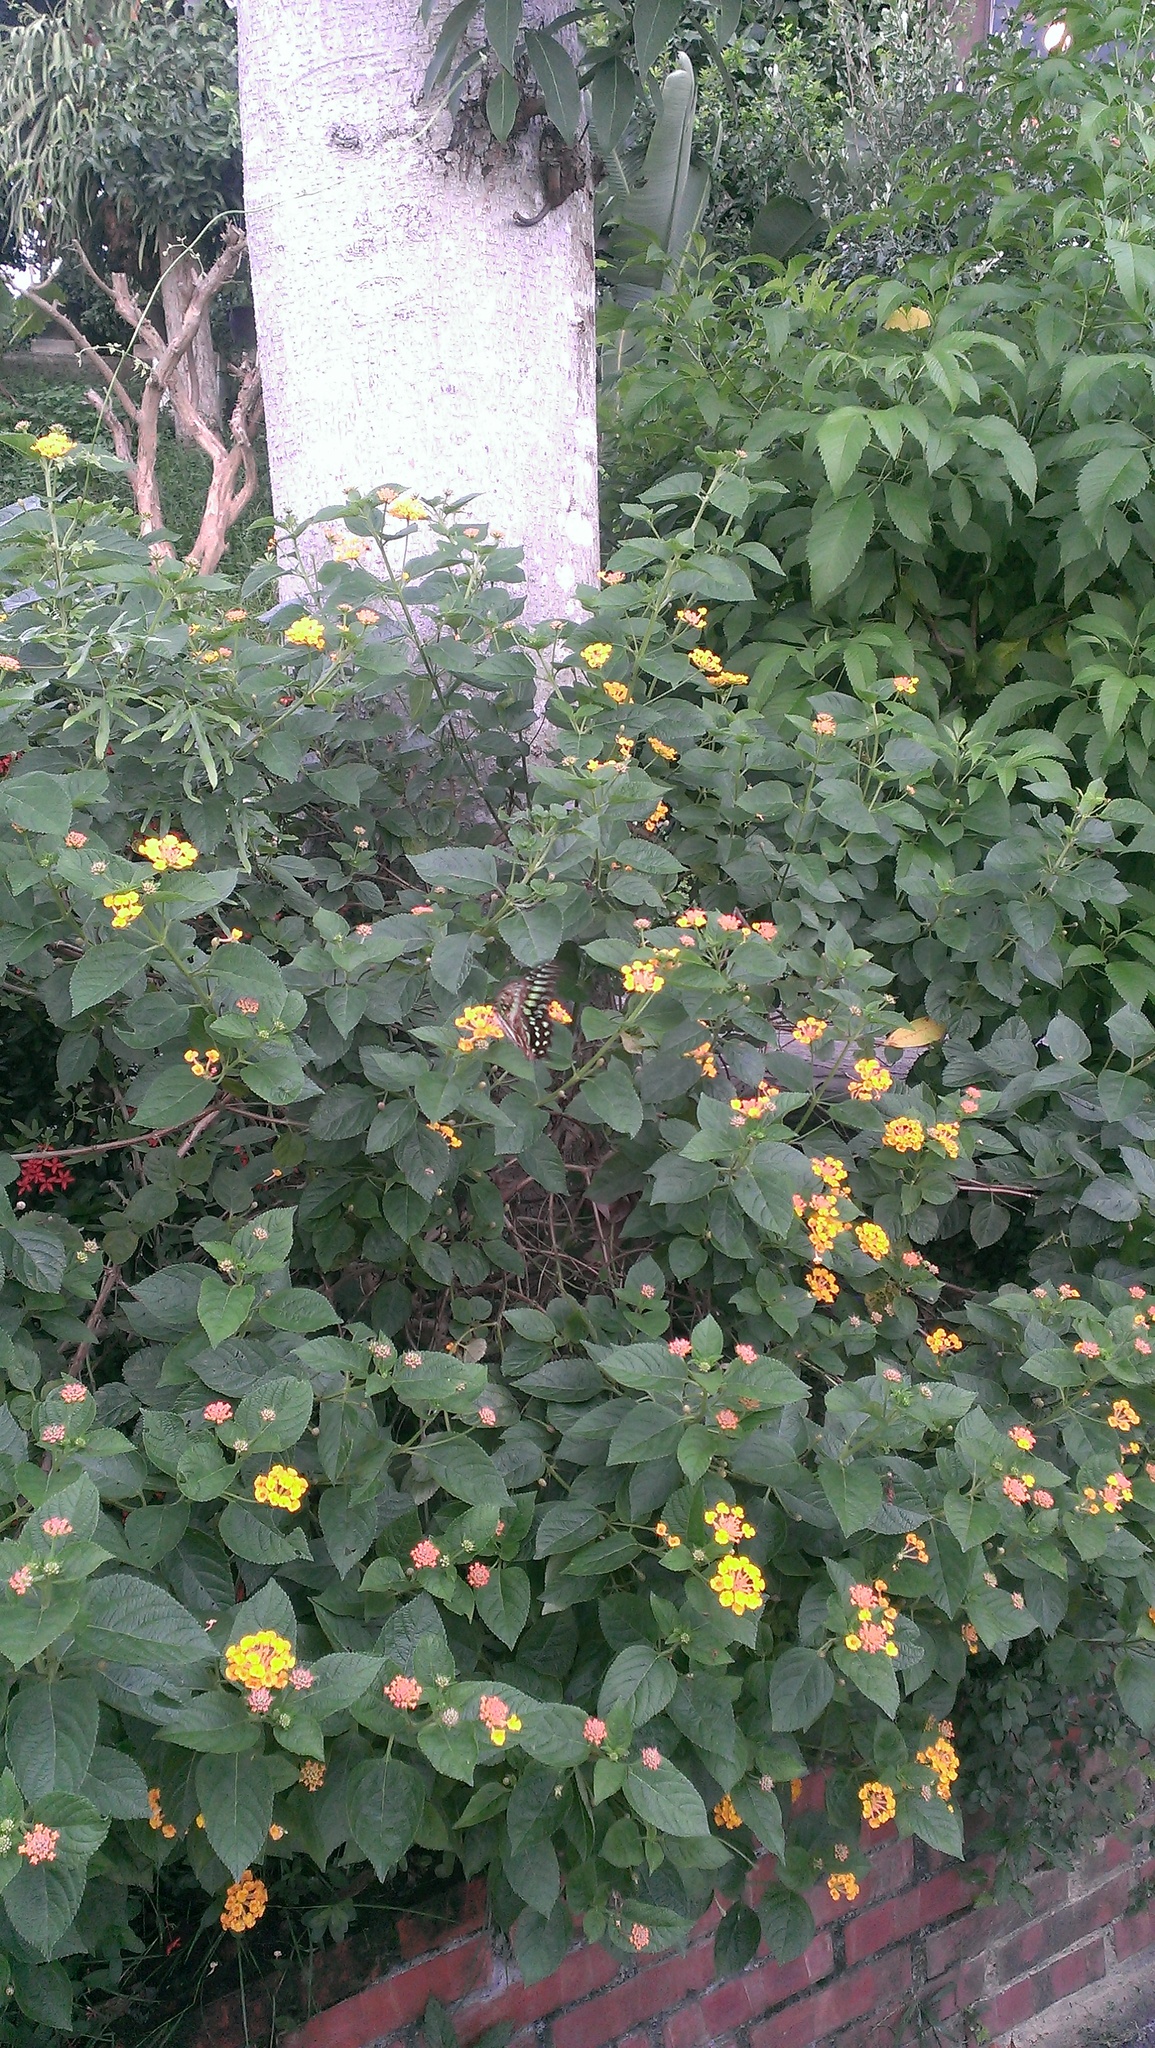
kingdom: Animalia
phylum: Arthropoda
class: Insecta
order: Lepidoptera
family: Papilionidae
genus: Graphium
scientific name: Graphium agamemnon
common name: Tailed jay
